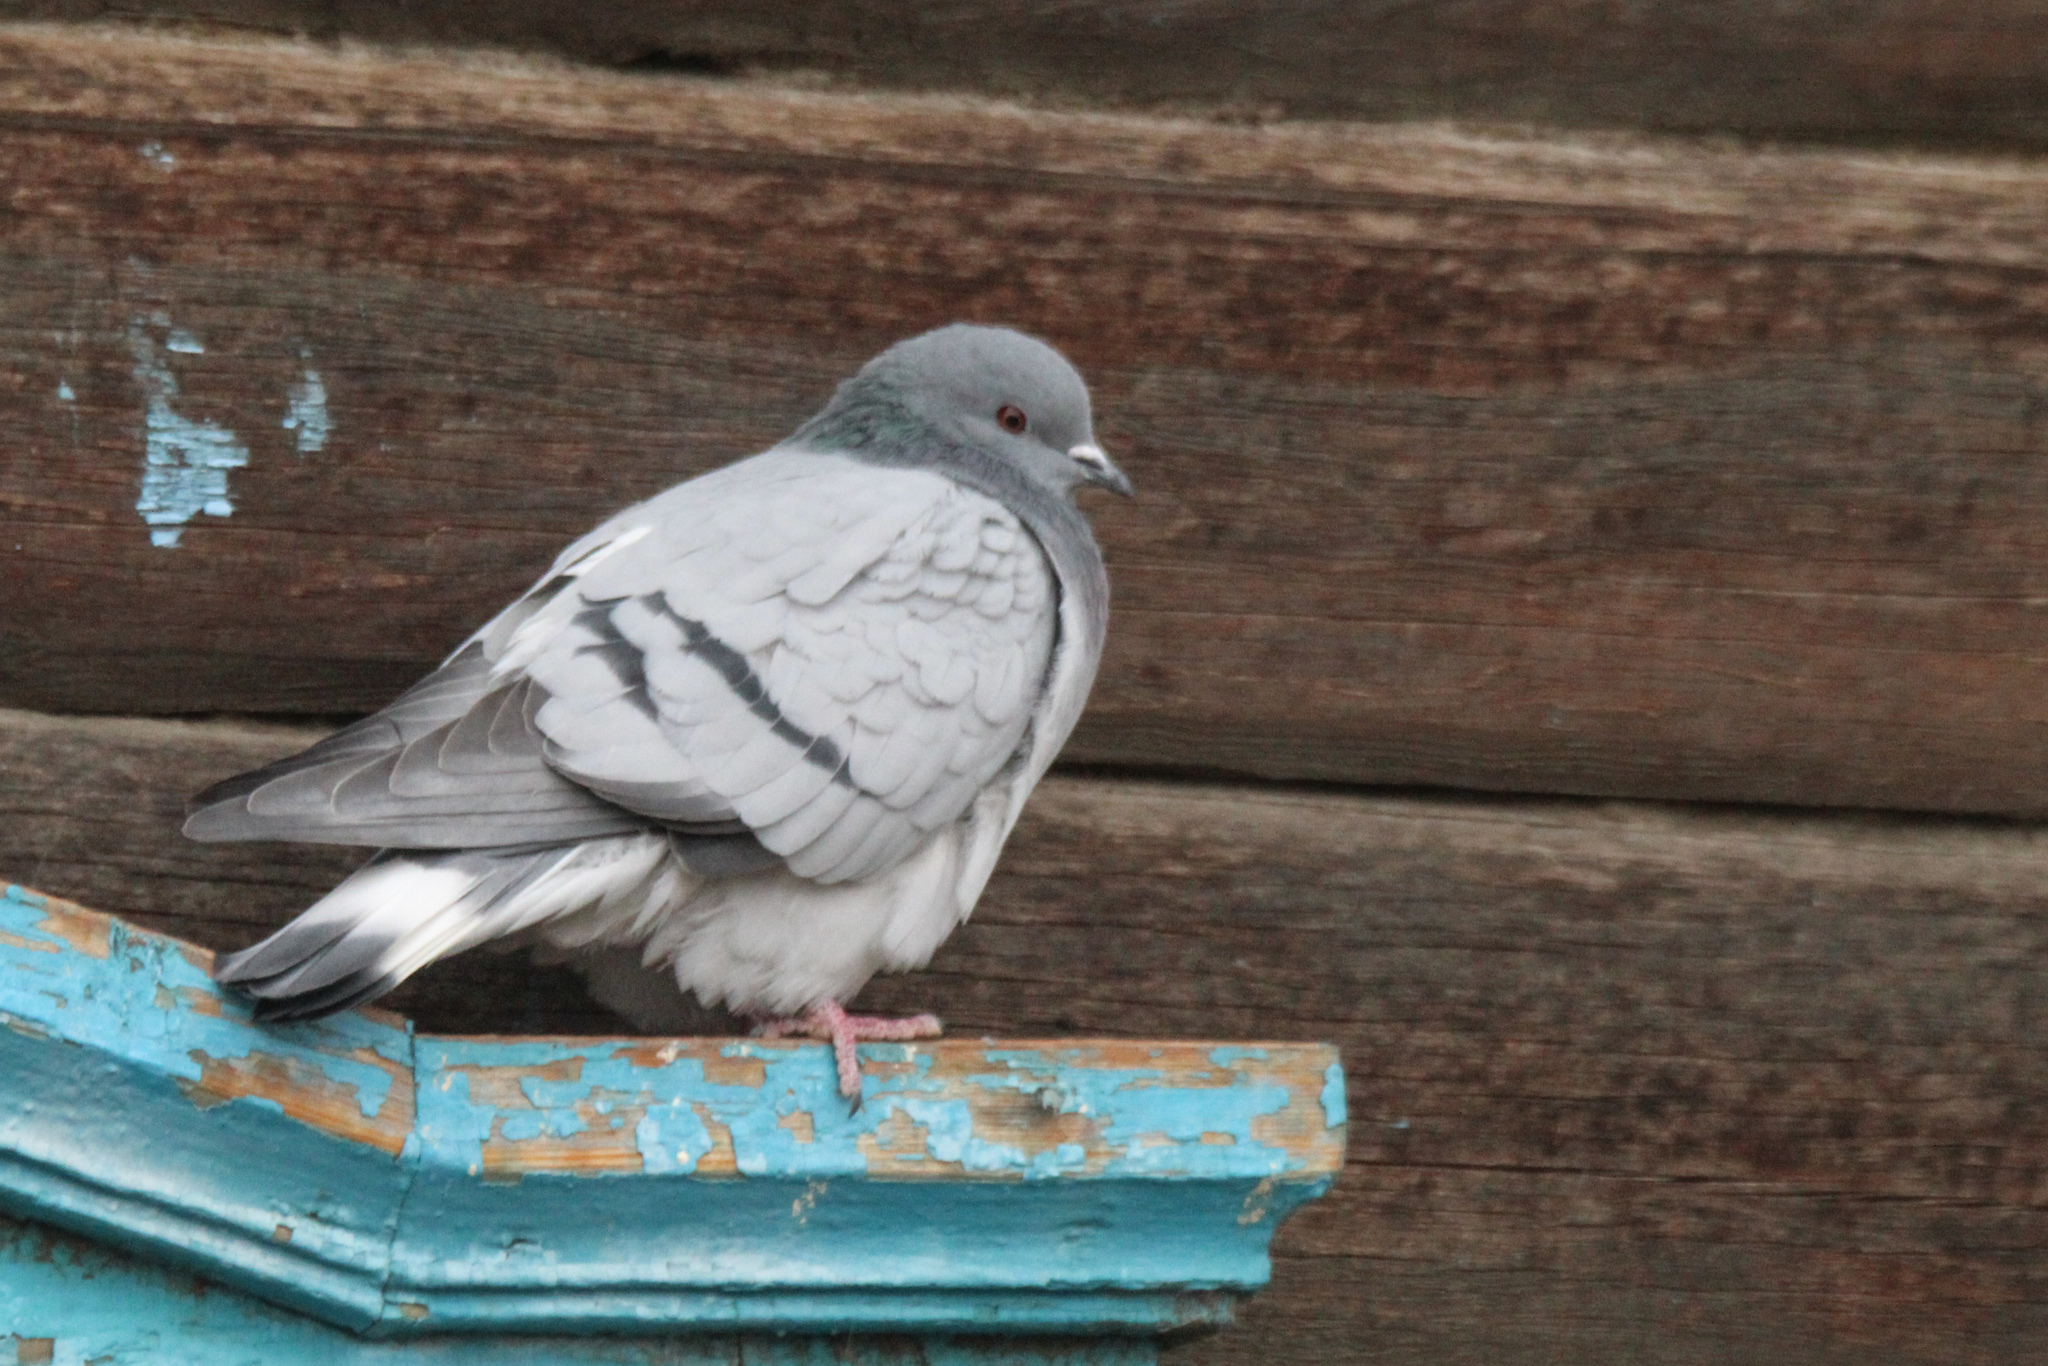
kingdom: Animalia
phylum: Chordata
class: Aves
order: Columbiformes
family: Columbidae
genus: Columba
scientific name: Columba rupestris
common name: Hill pigeon
